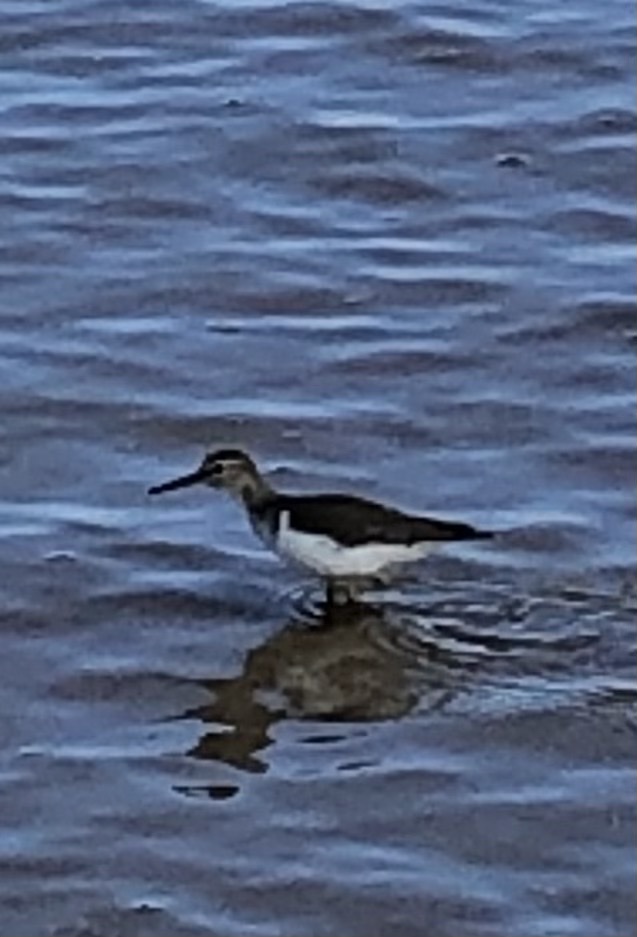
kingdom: Animalia
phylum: Chordata
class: Aves
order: Charadriiformes
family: Scolopacidae
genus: Actitis
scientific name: Actitis macularius
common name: Spotted sandpiper
